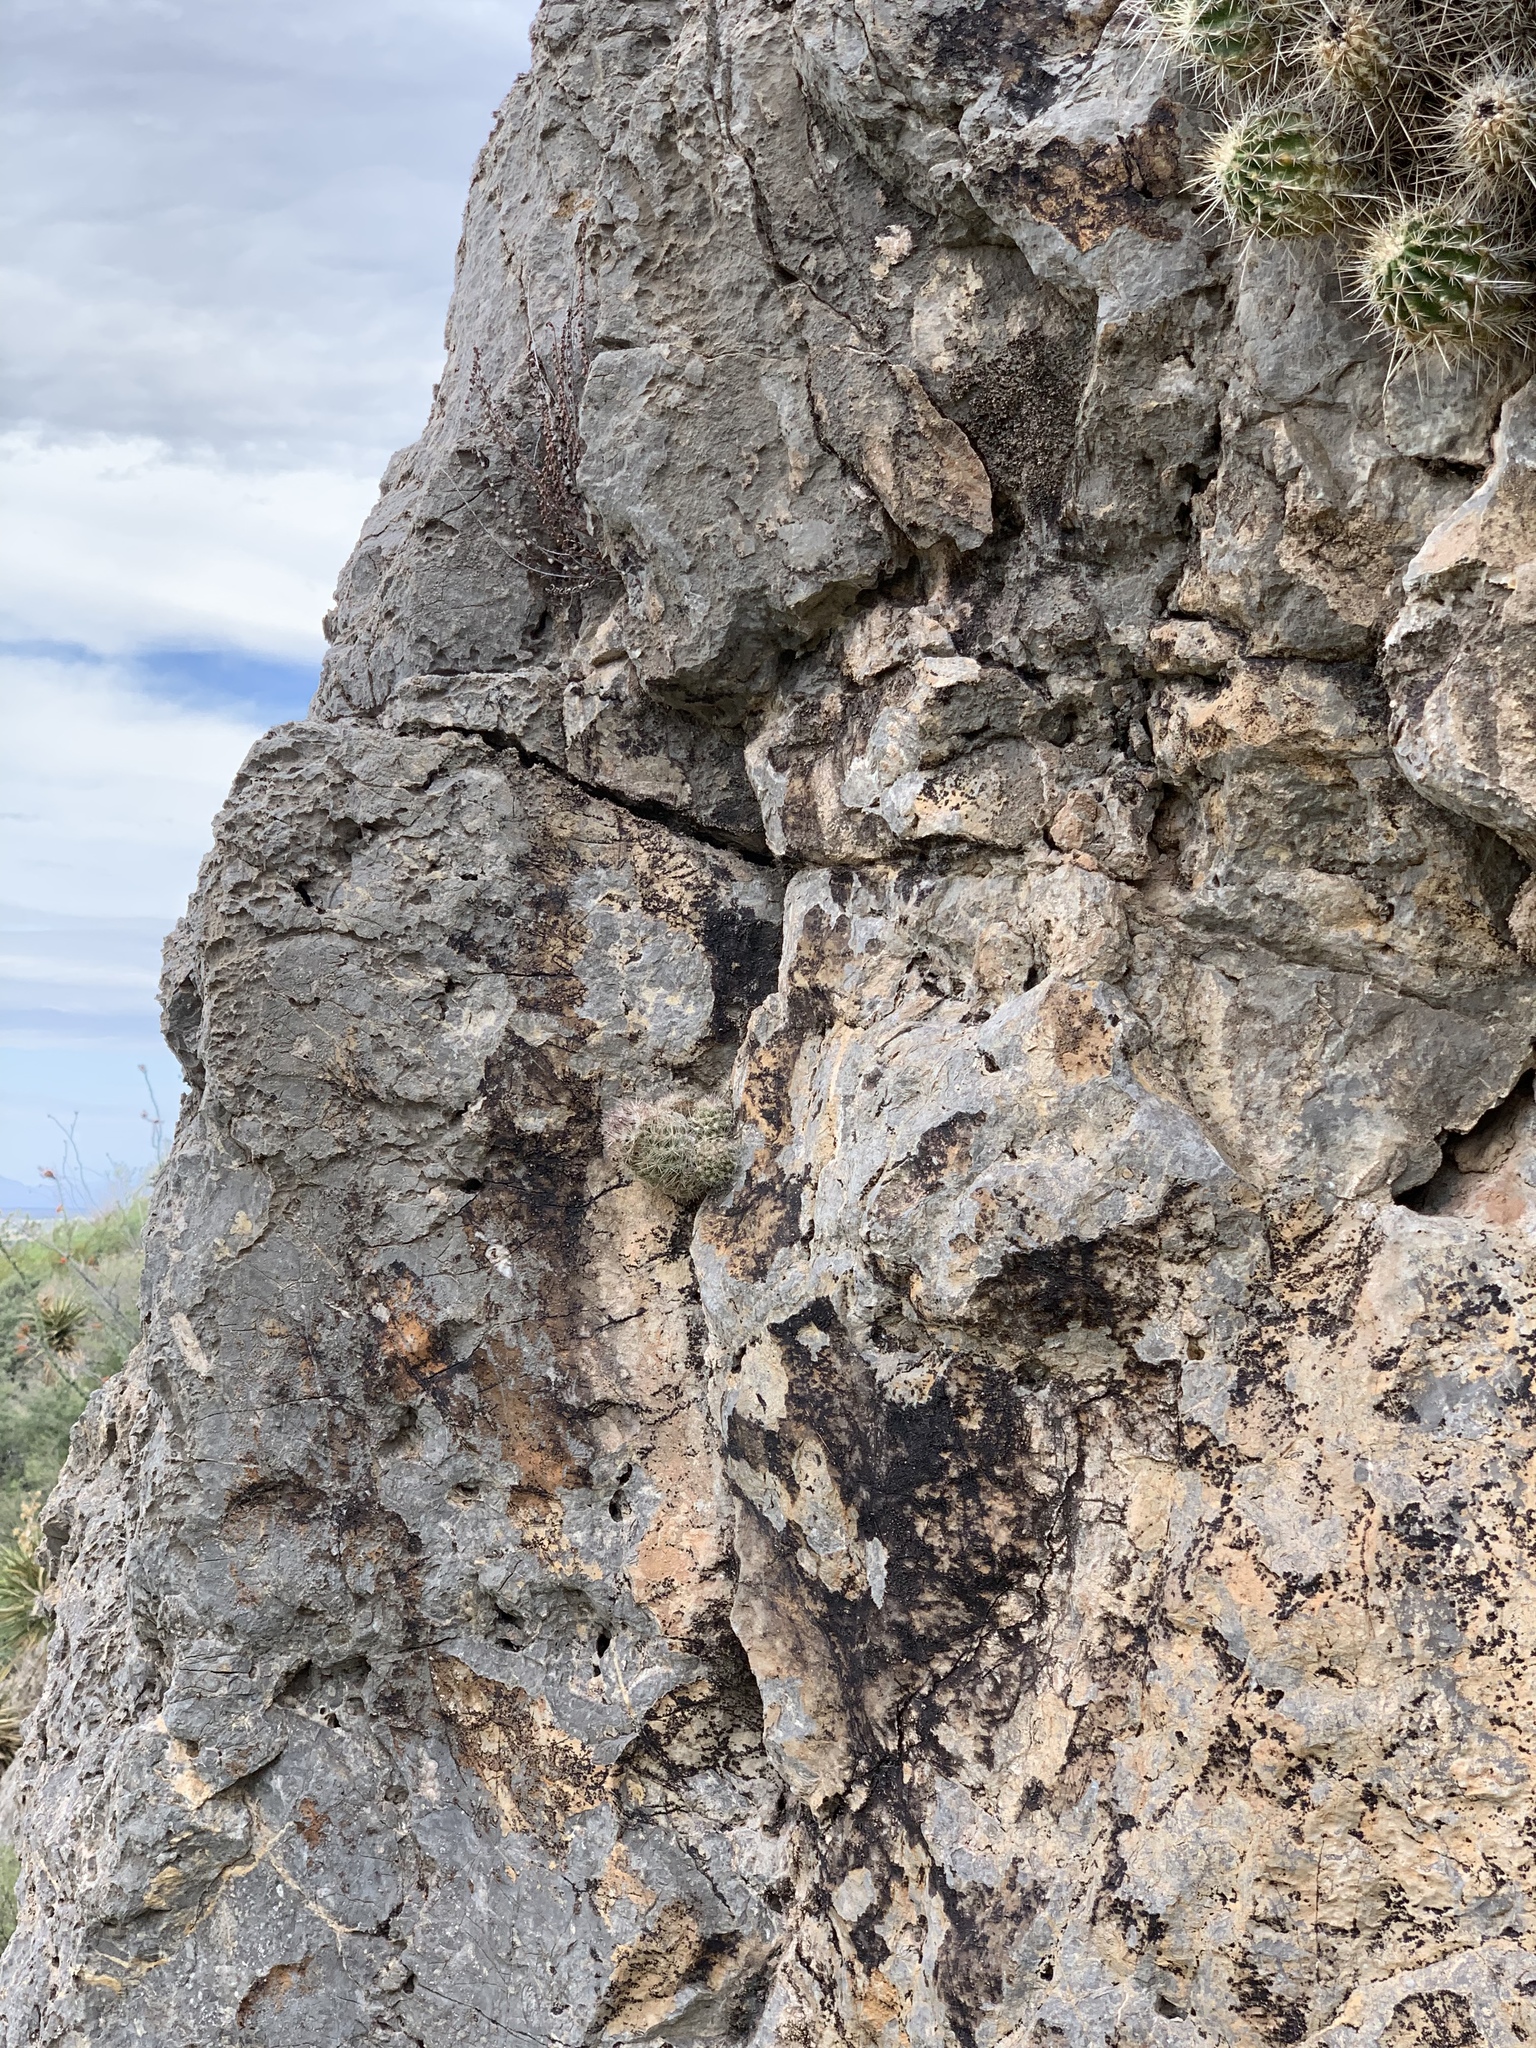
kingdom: Plantae
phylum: Tracheophyta
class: Magnoliopsida
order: Caryophyllales
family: Cactaceae
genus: Pelecyphora
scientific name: Pelecyphora tuberculosa
